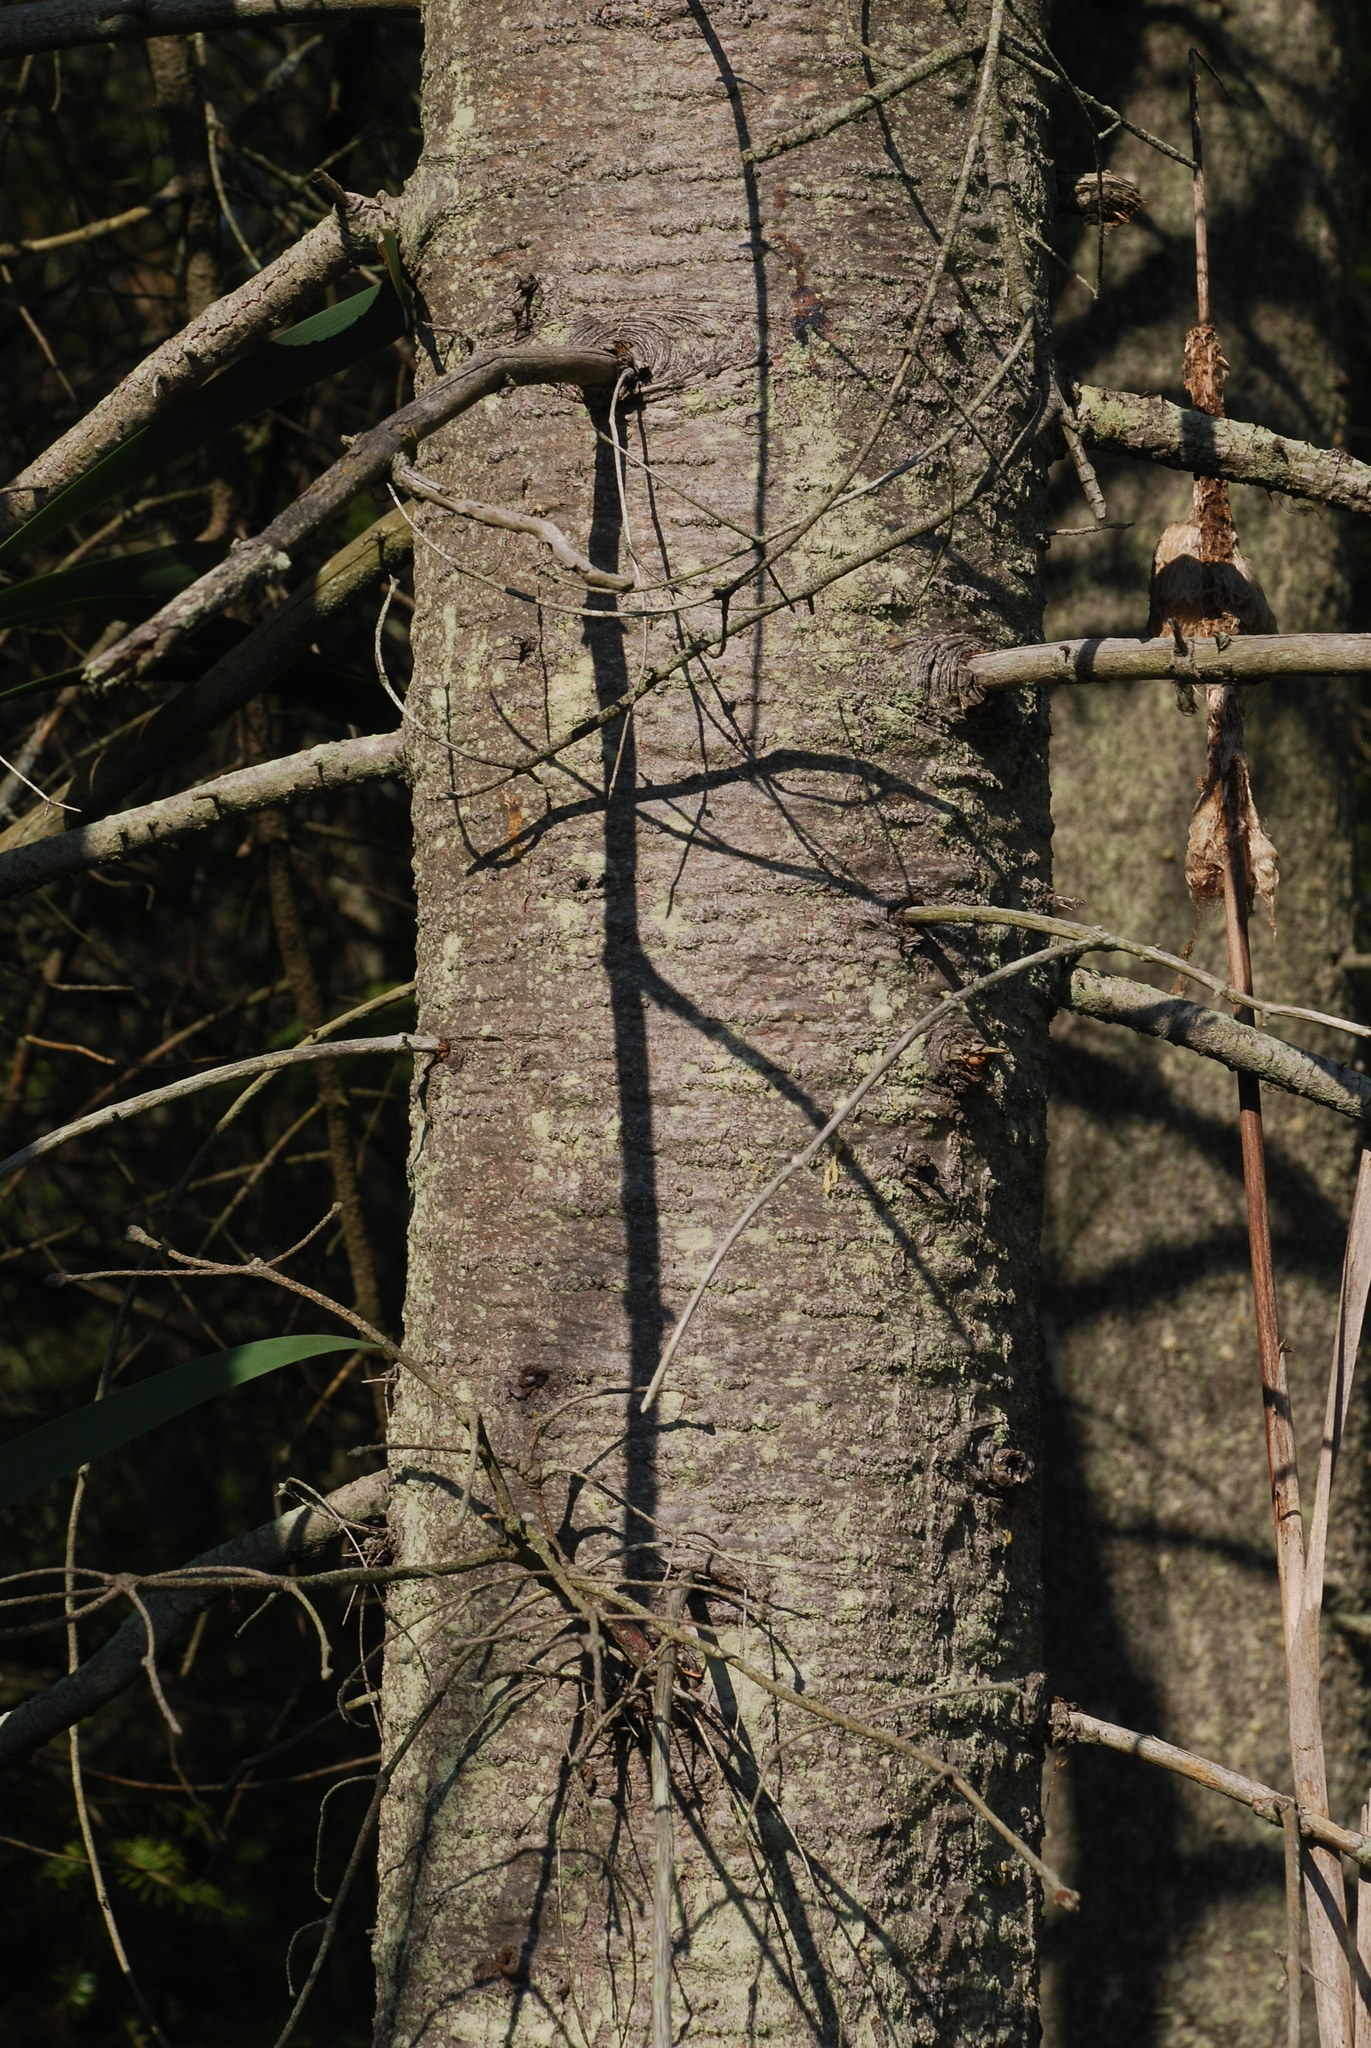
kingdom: Plantae
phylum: Tracheophyta
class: Pinopsida
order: Pinales
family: Pinaceae
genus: Abies
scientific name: Abies balsamea
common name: Balsam fir
